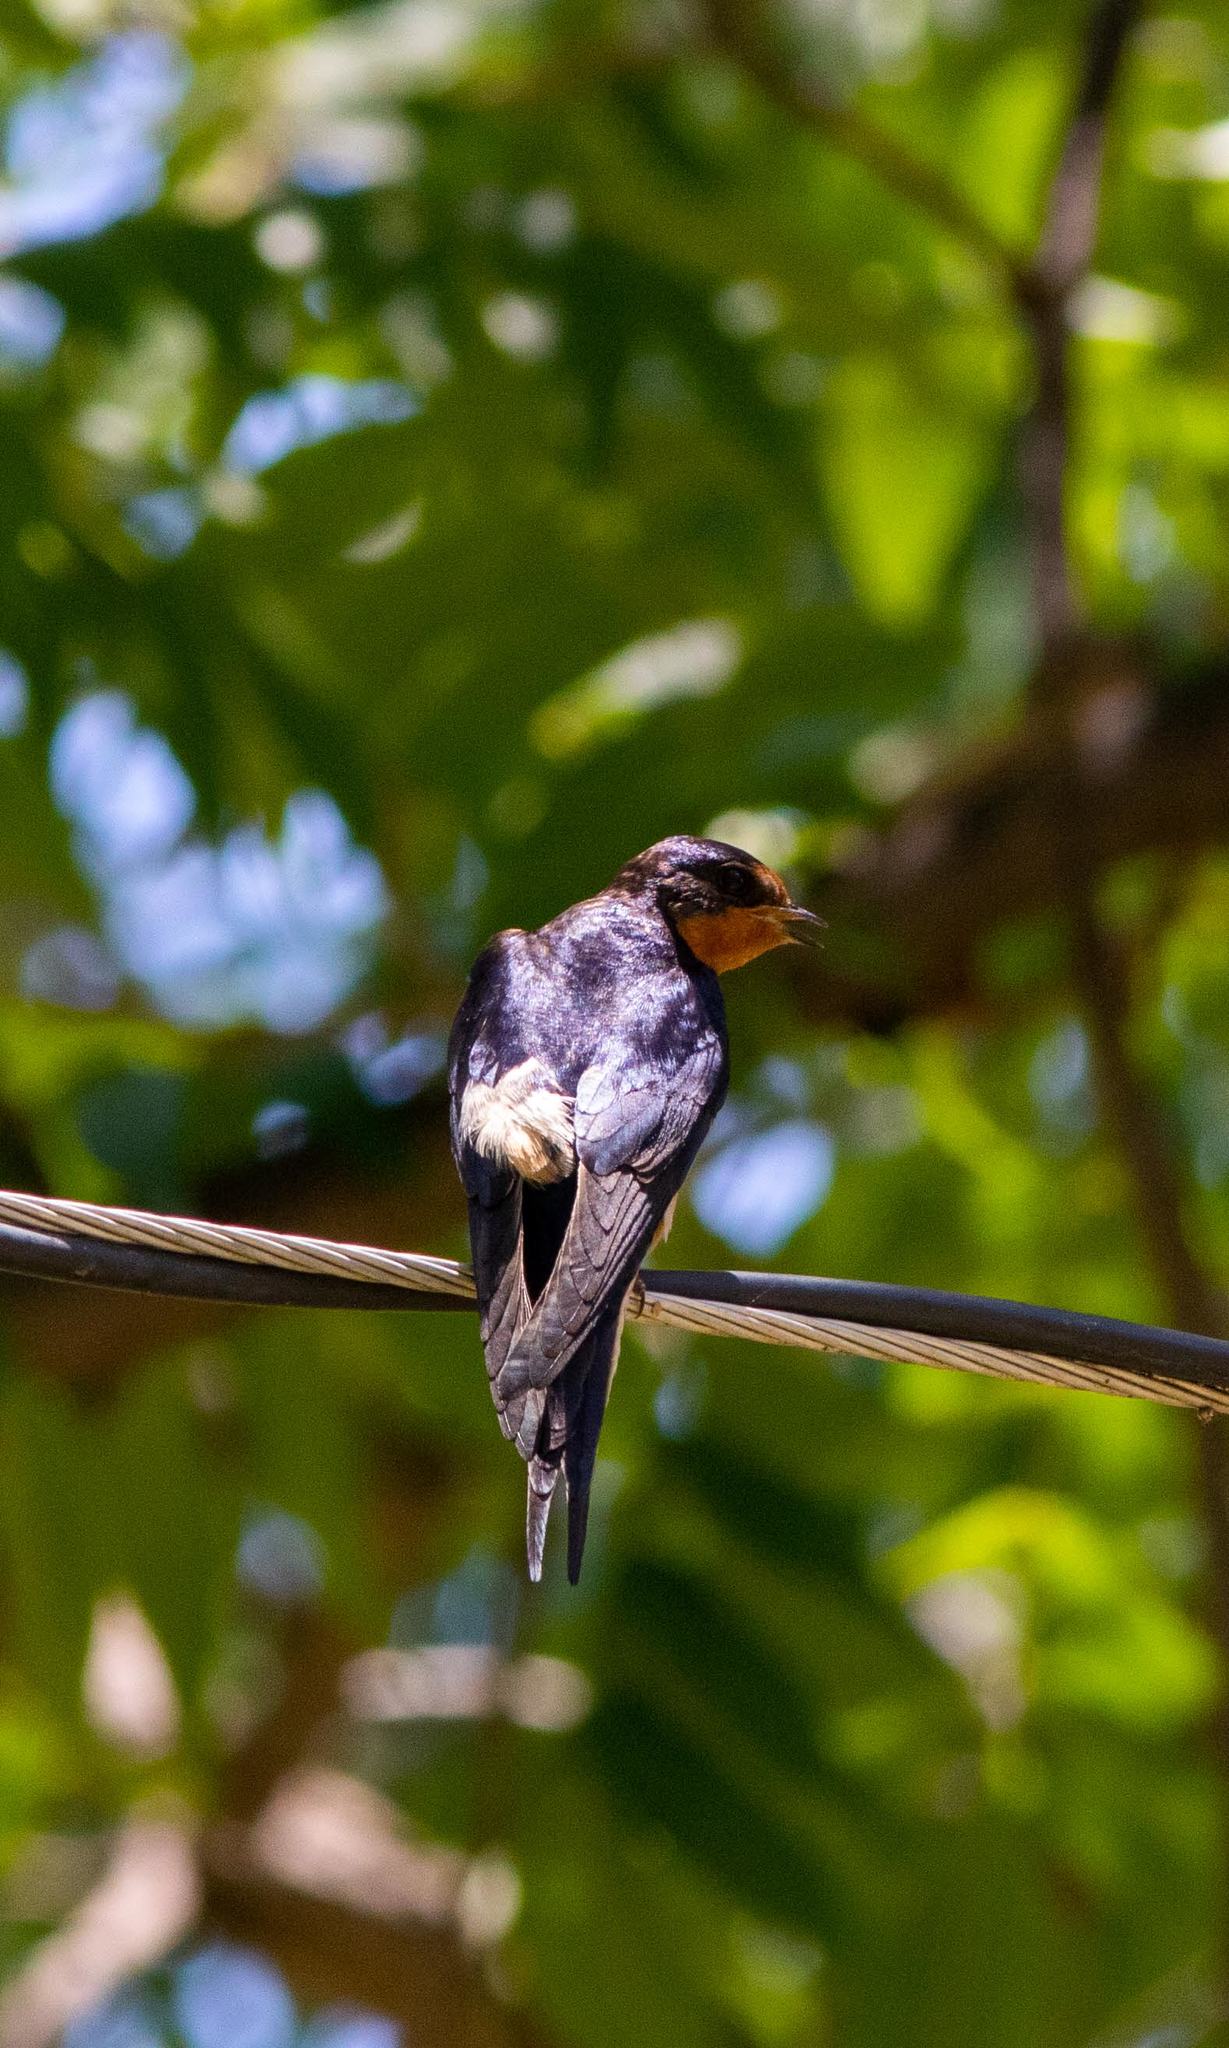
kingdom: Animalia
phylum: Chordata
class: Aves
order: Passeriformes
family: Hirundinidae
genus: Hirundo
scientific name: Hirundo rustica
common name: Barn swallow
